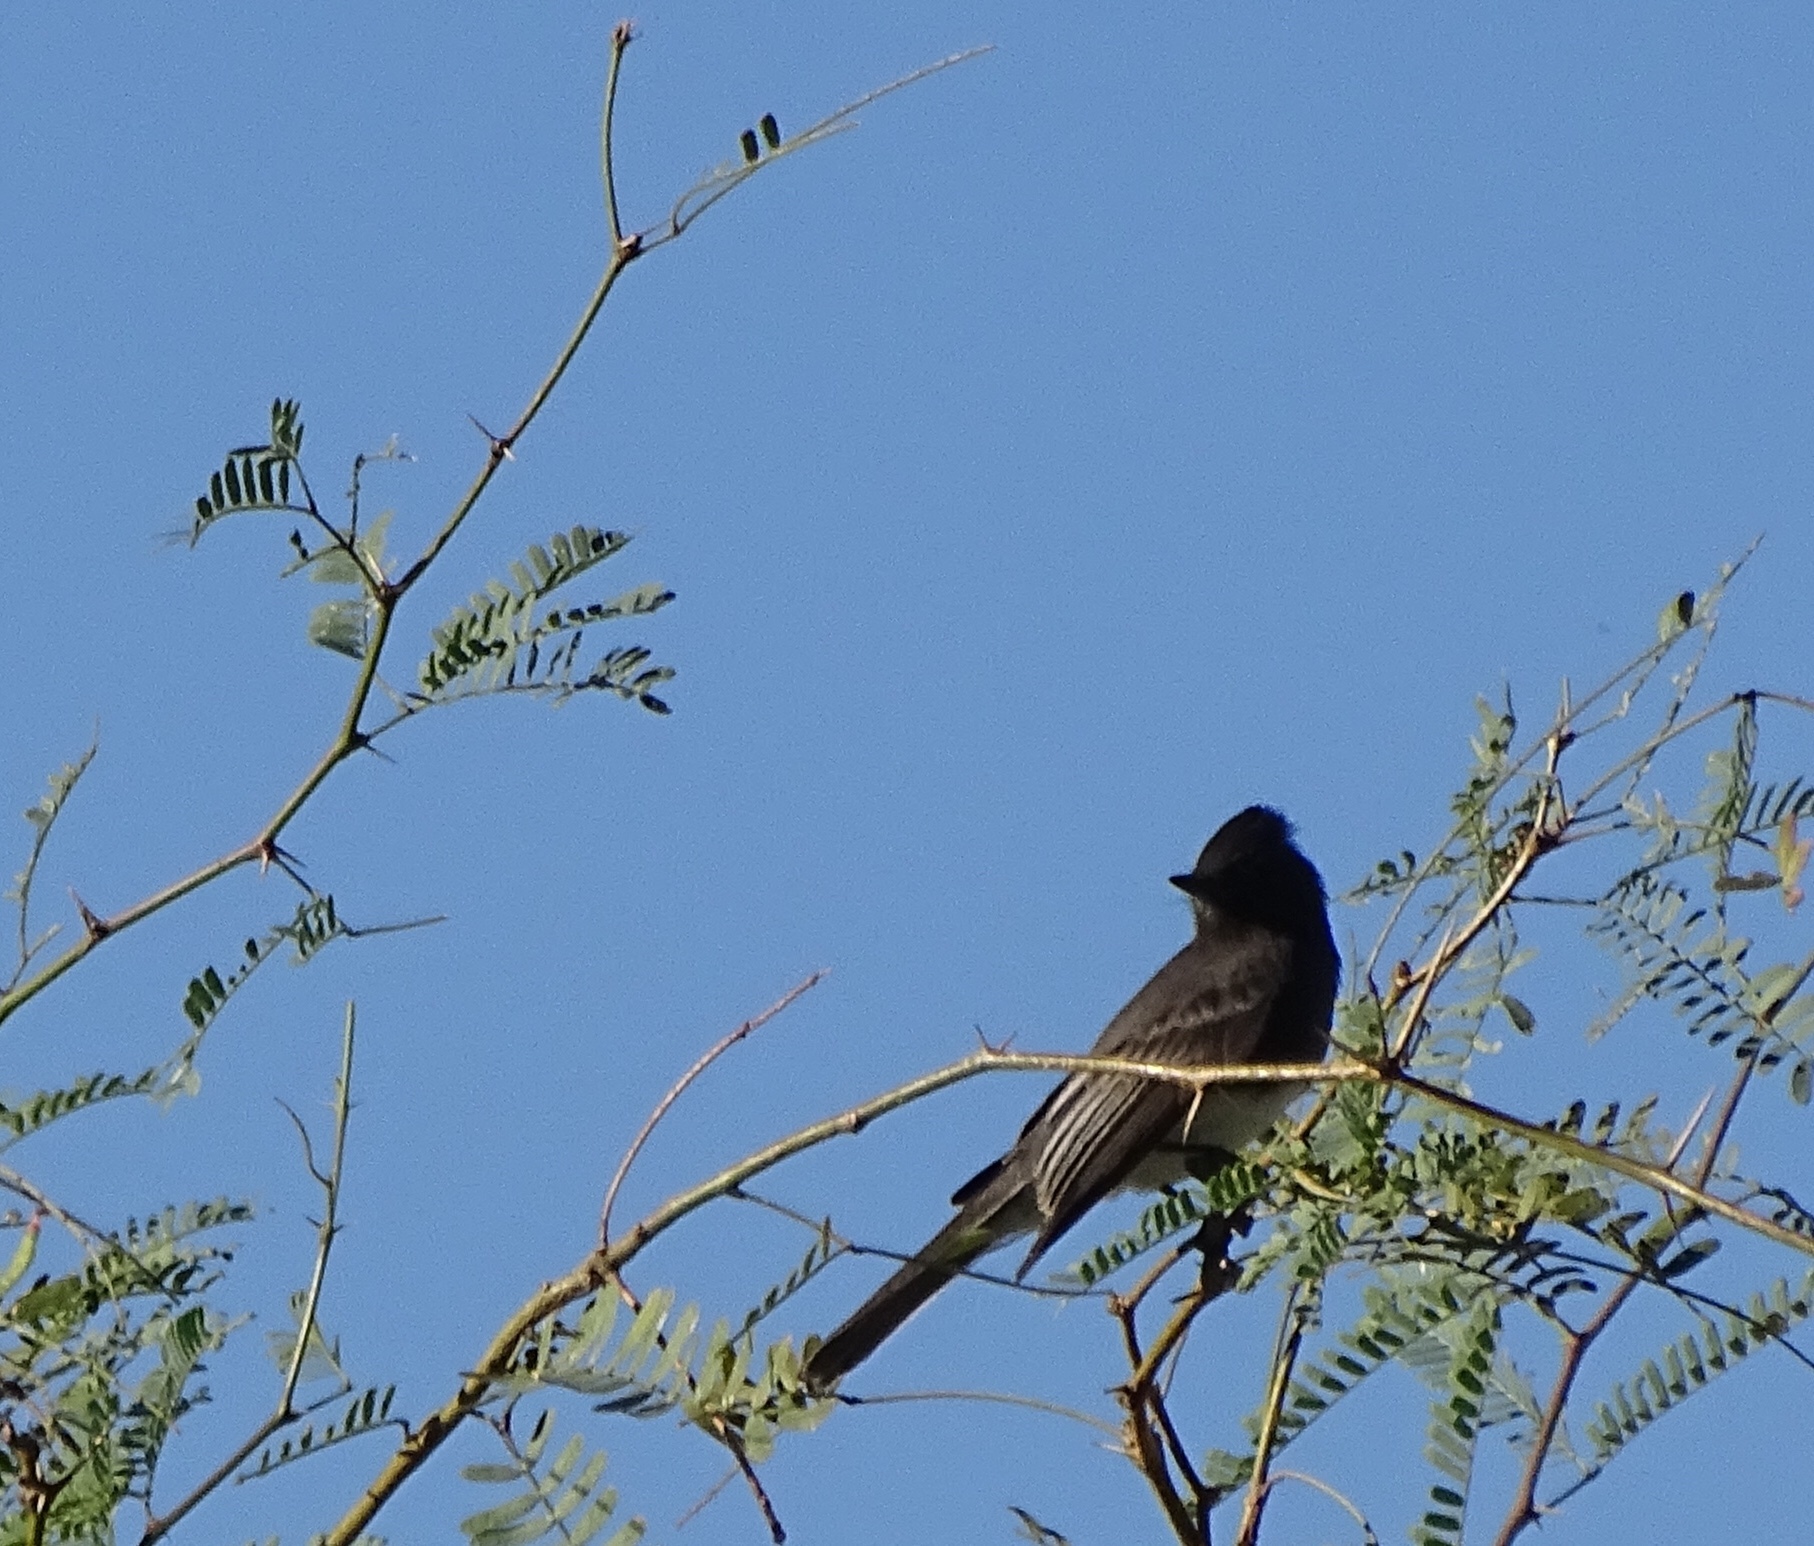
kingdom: Animalia
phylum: Chordata
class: Aves
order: Passeriformes
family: Tyrannidae
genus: Sayornis
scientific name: Sayornis nigricans
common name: Black phoebe
